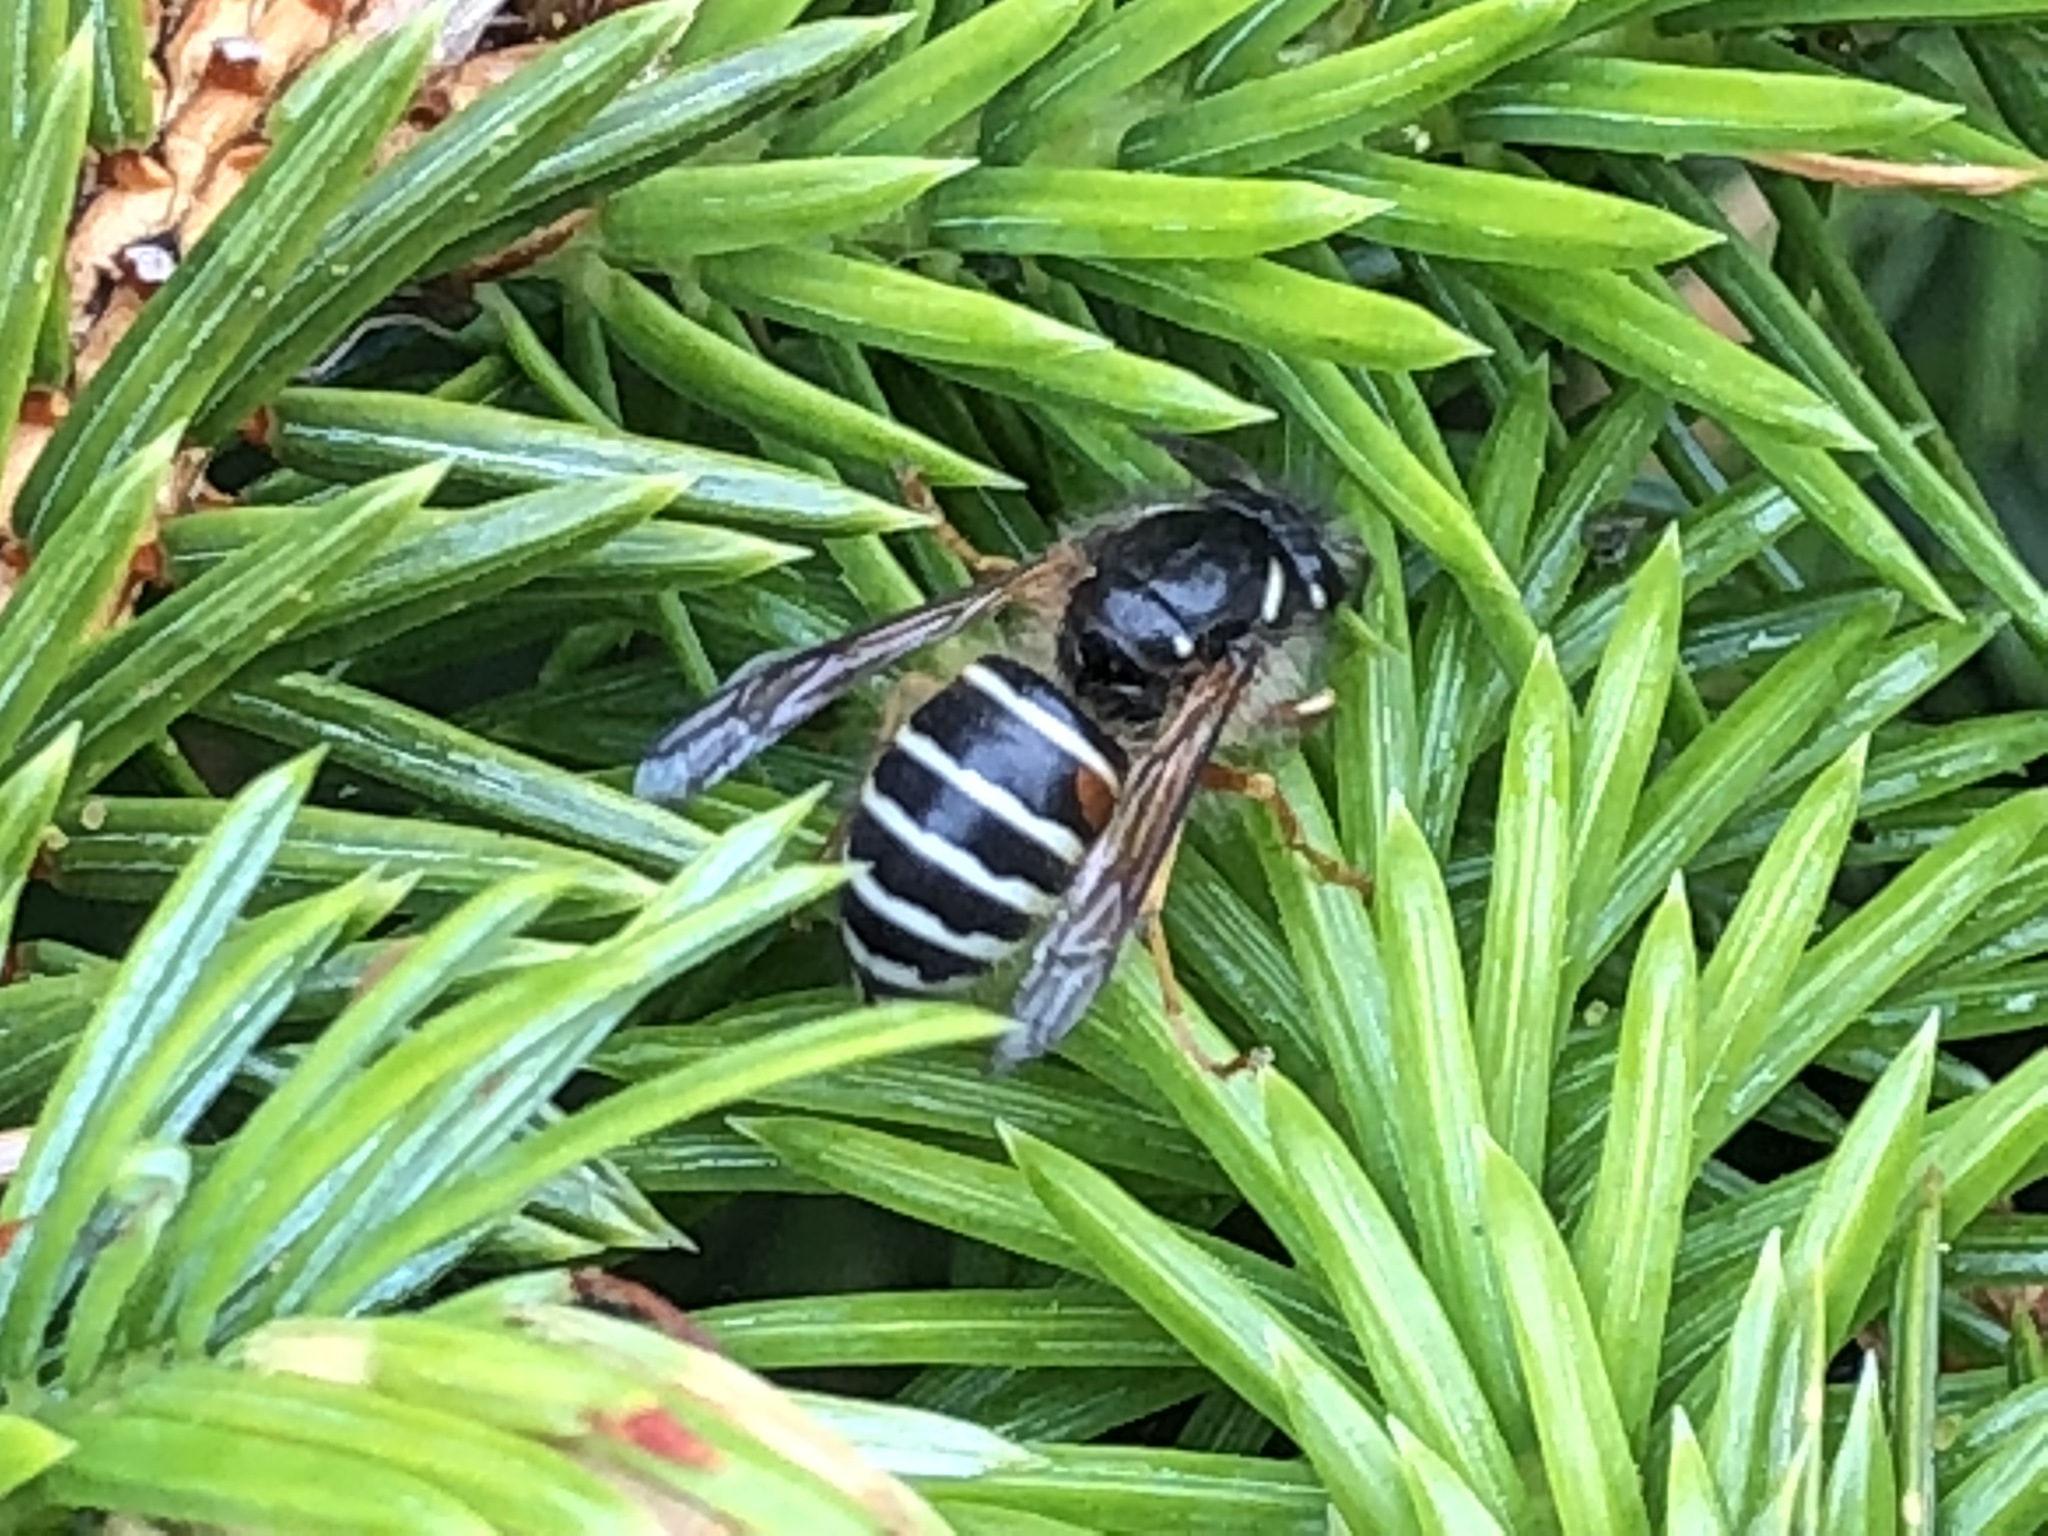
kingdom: Animalia
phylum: Arthropoda
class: Insecta
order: Hymenoptera
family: Vespidae
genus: Dolichovespula
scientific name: Dolichovespula norwegica
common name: Norwegian wasp
